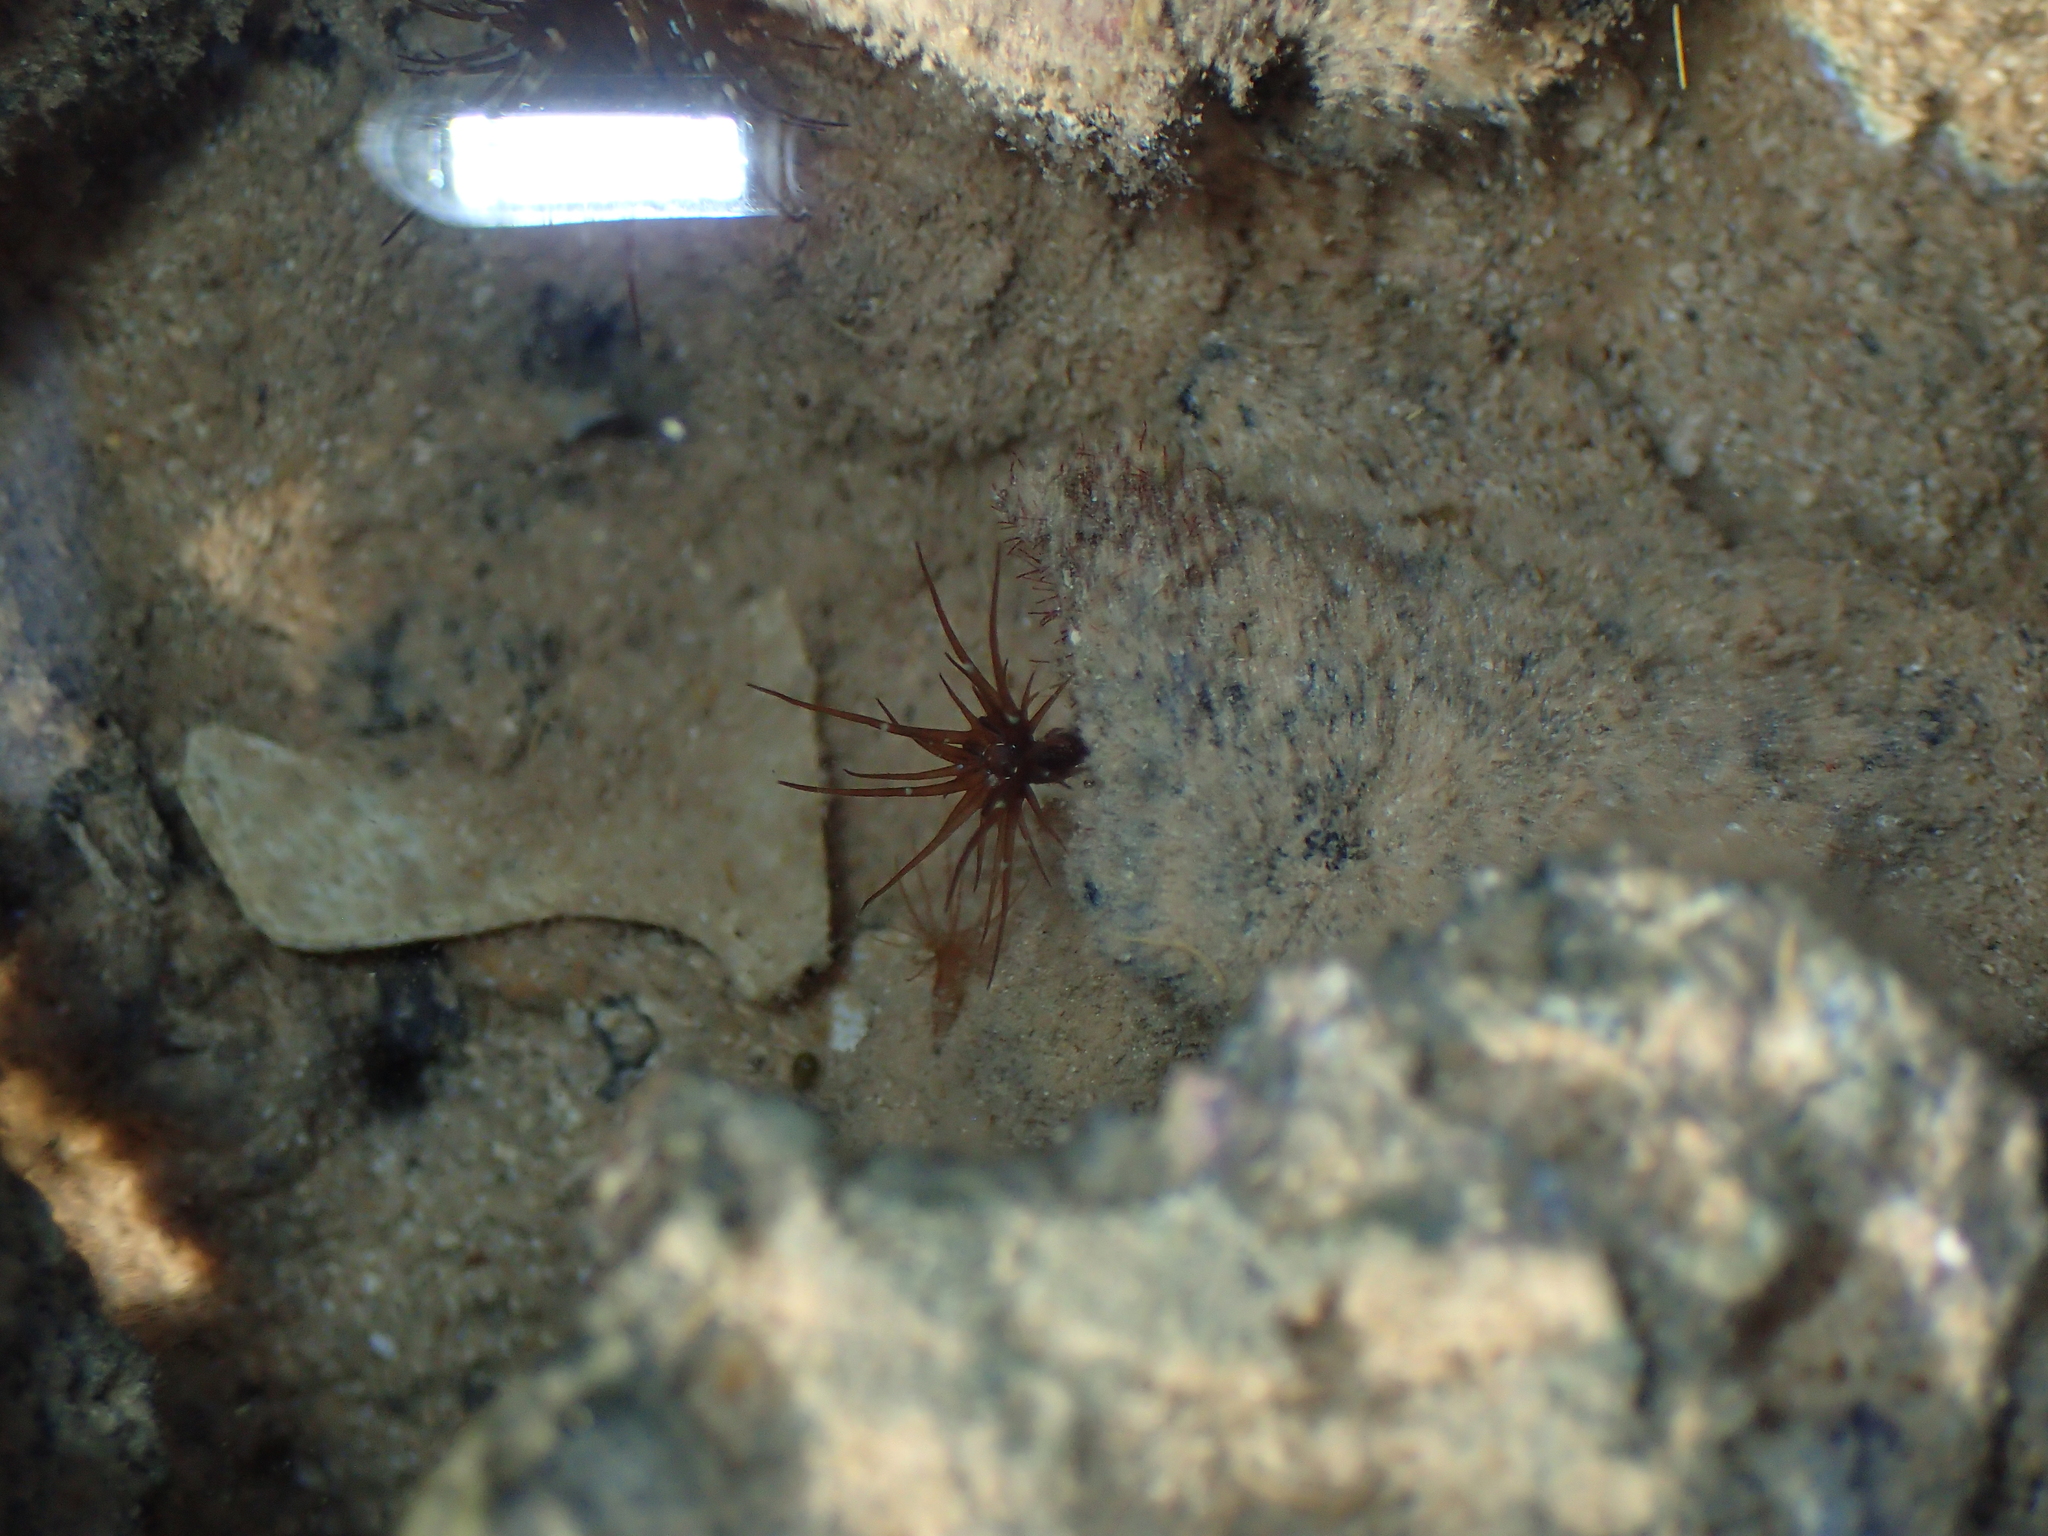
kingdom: Animalia
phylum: Cnidaria
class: Anthozoa
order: Actiniaria
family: Aiptasiidae
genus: Exaiptasia
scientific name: Exaiptasia diaphana
